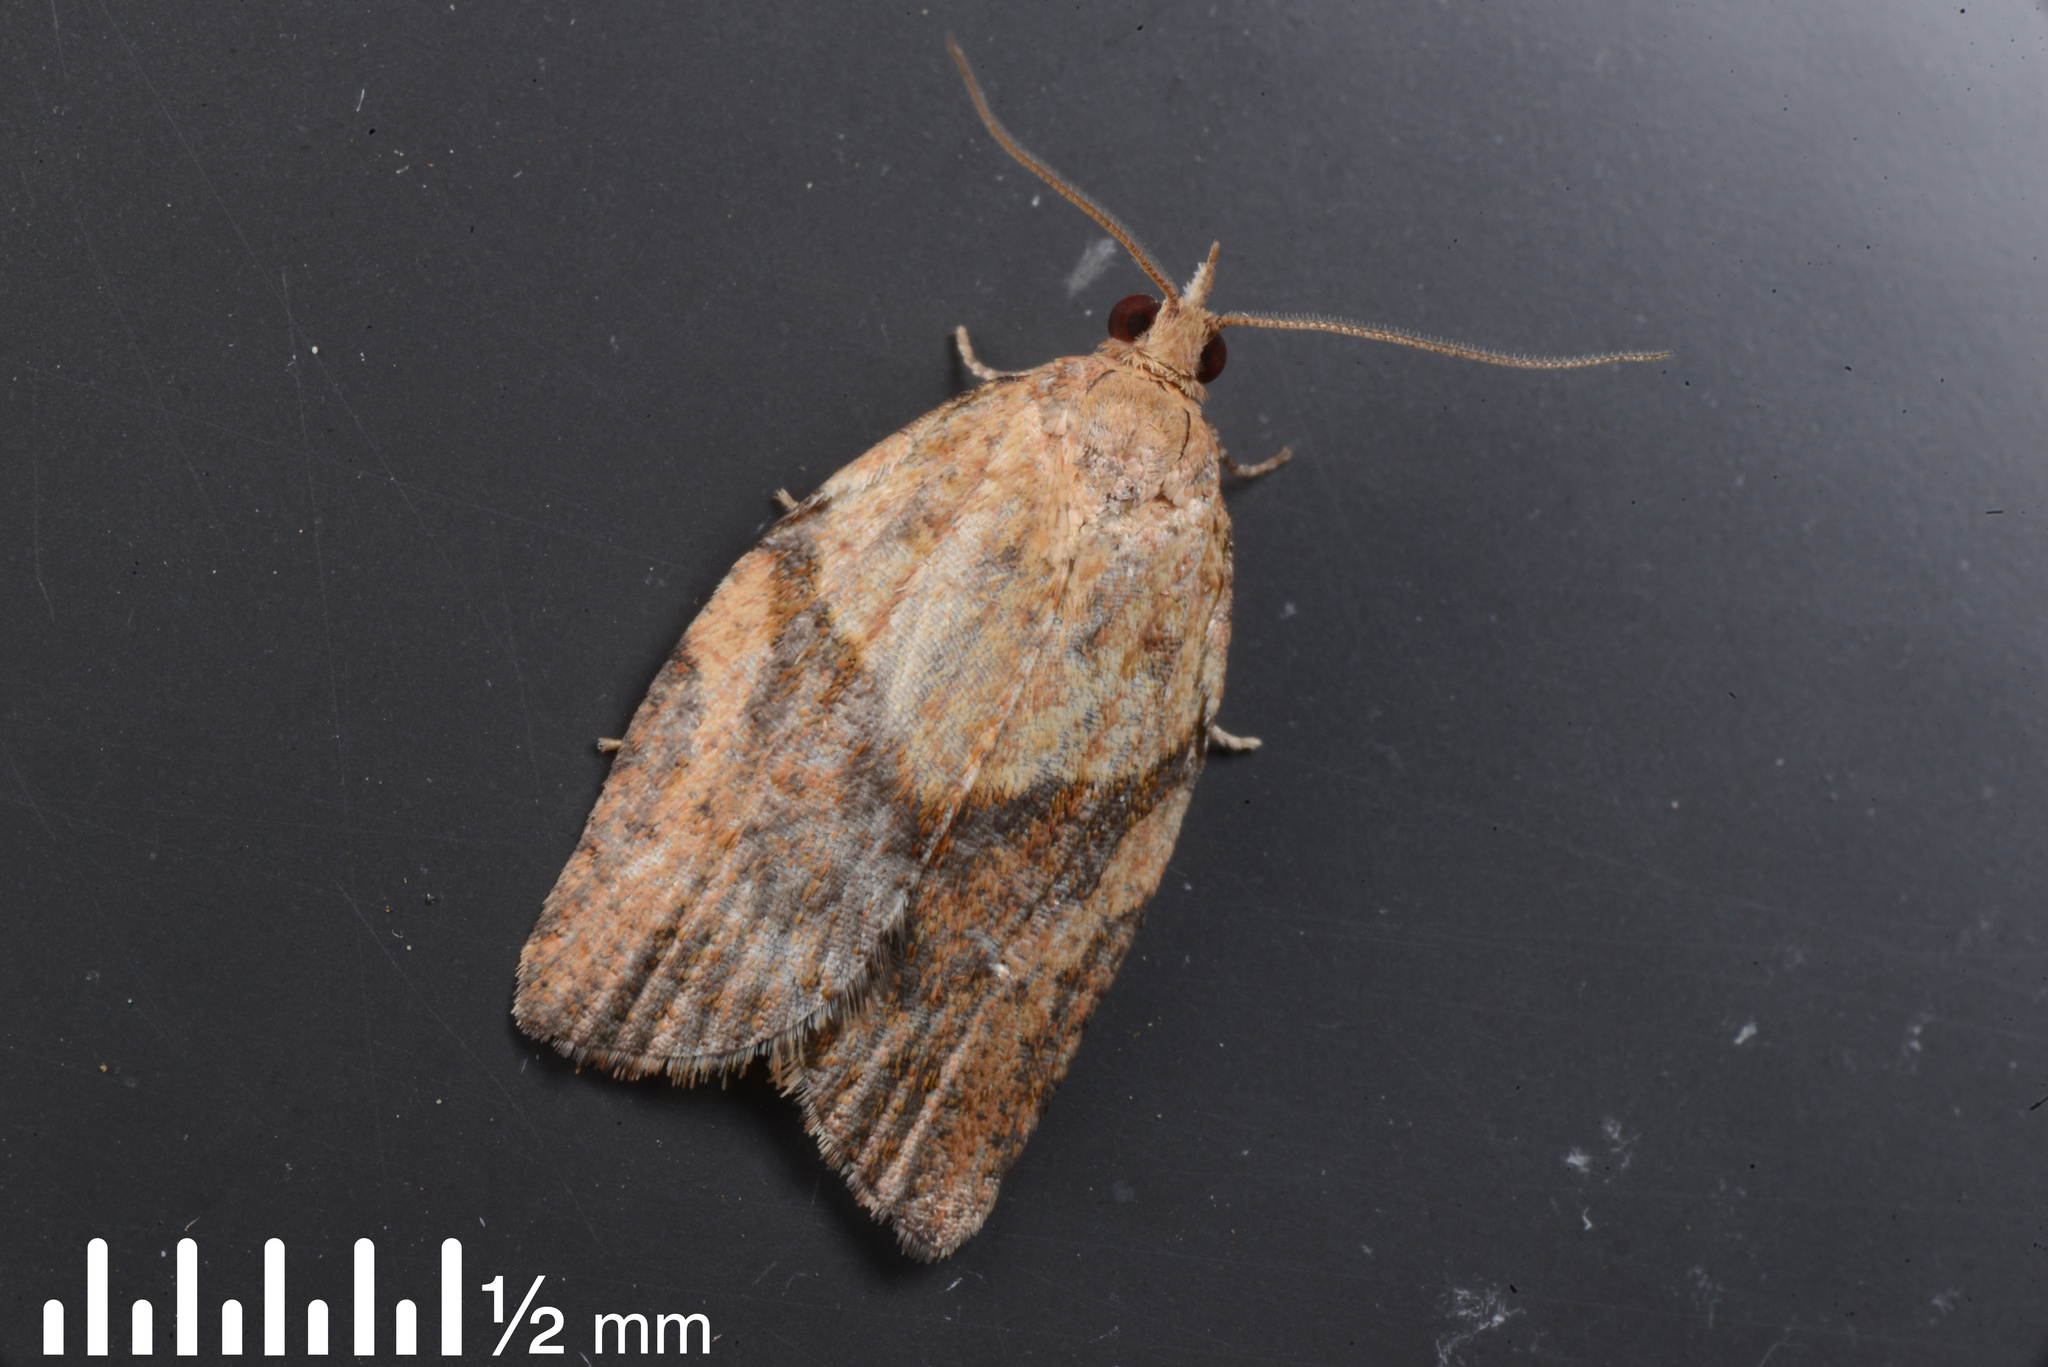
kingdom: Animalia
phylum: Arthropoda
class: Insecta
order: Lepidoptera
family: Tortricidae
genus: Epiphyas
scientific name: Epiphyas postvittana
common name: Light brown apple moth
